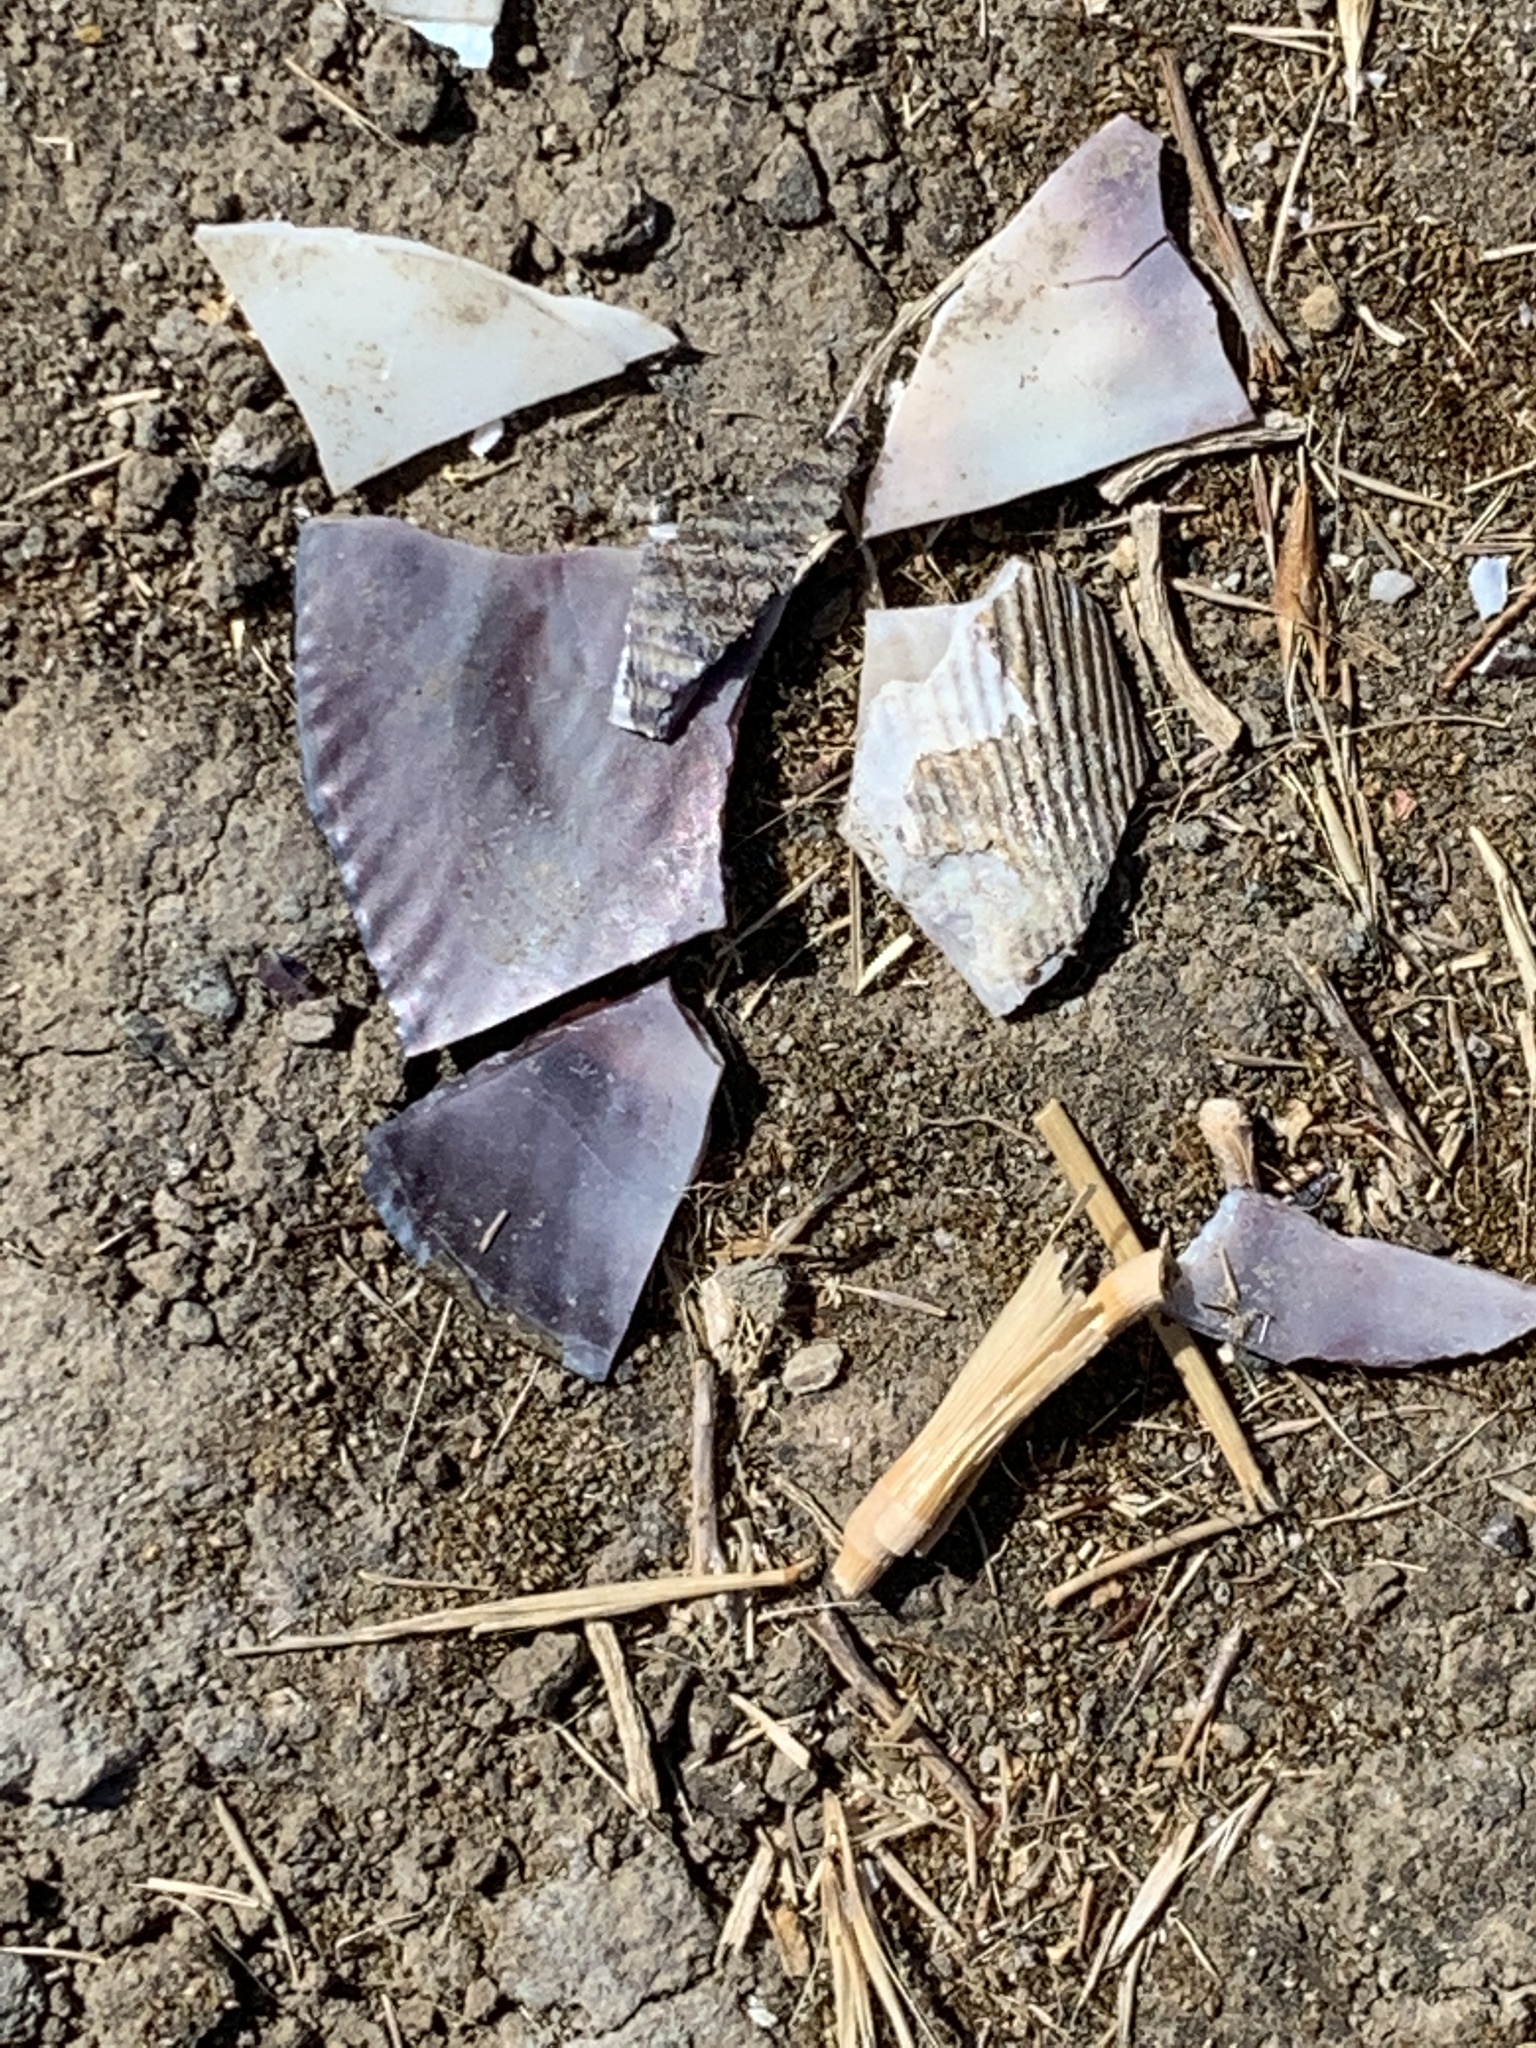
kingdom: Animalia
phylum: Mollusca
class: Bivalvia
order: Mytilida
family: Mytilidae
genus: Geukensia
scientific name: Geukensia demissa
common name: Ribbed mussel
